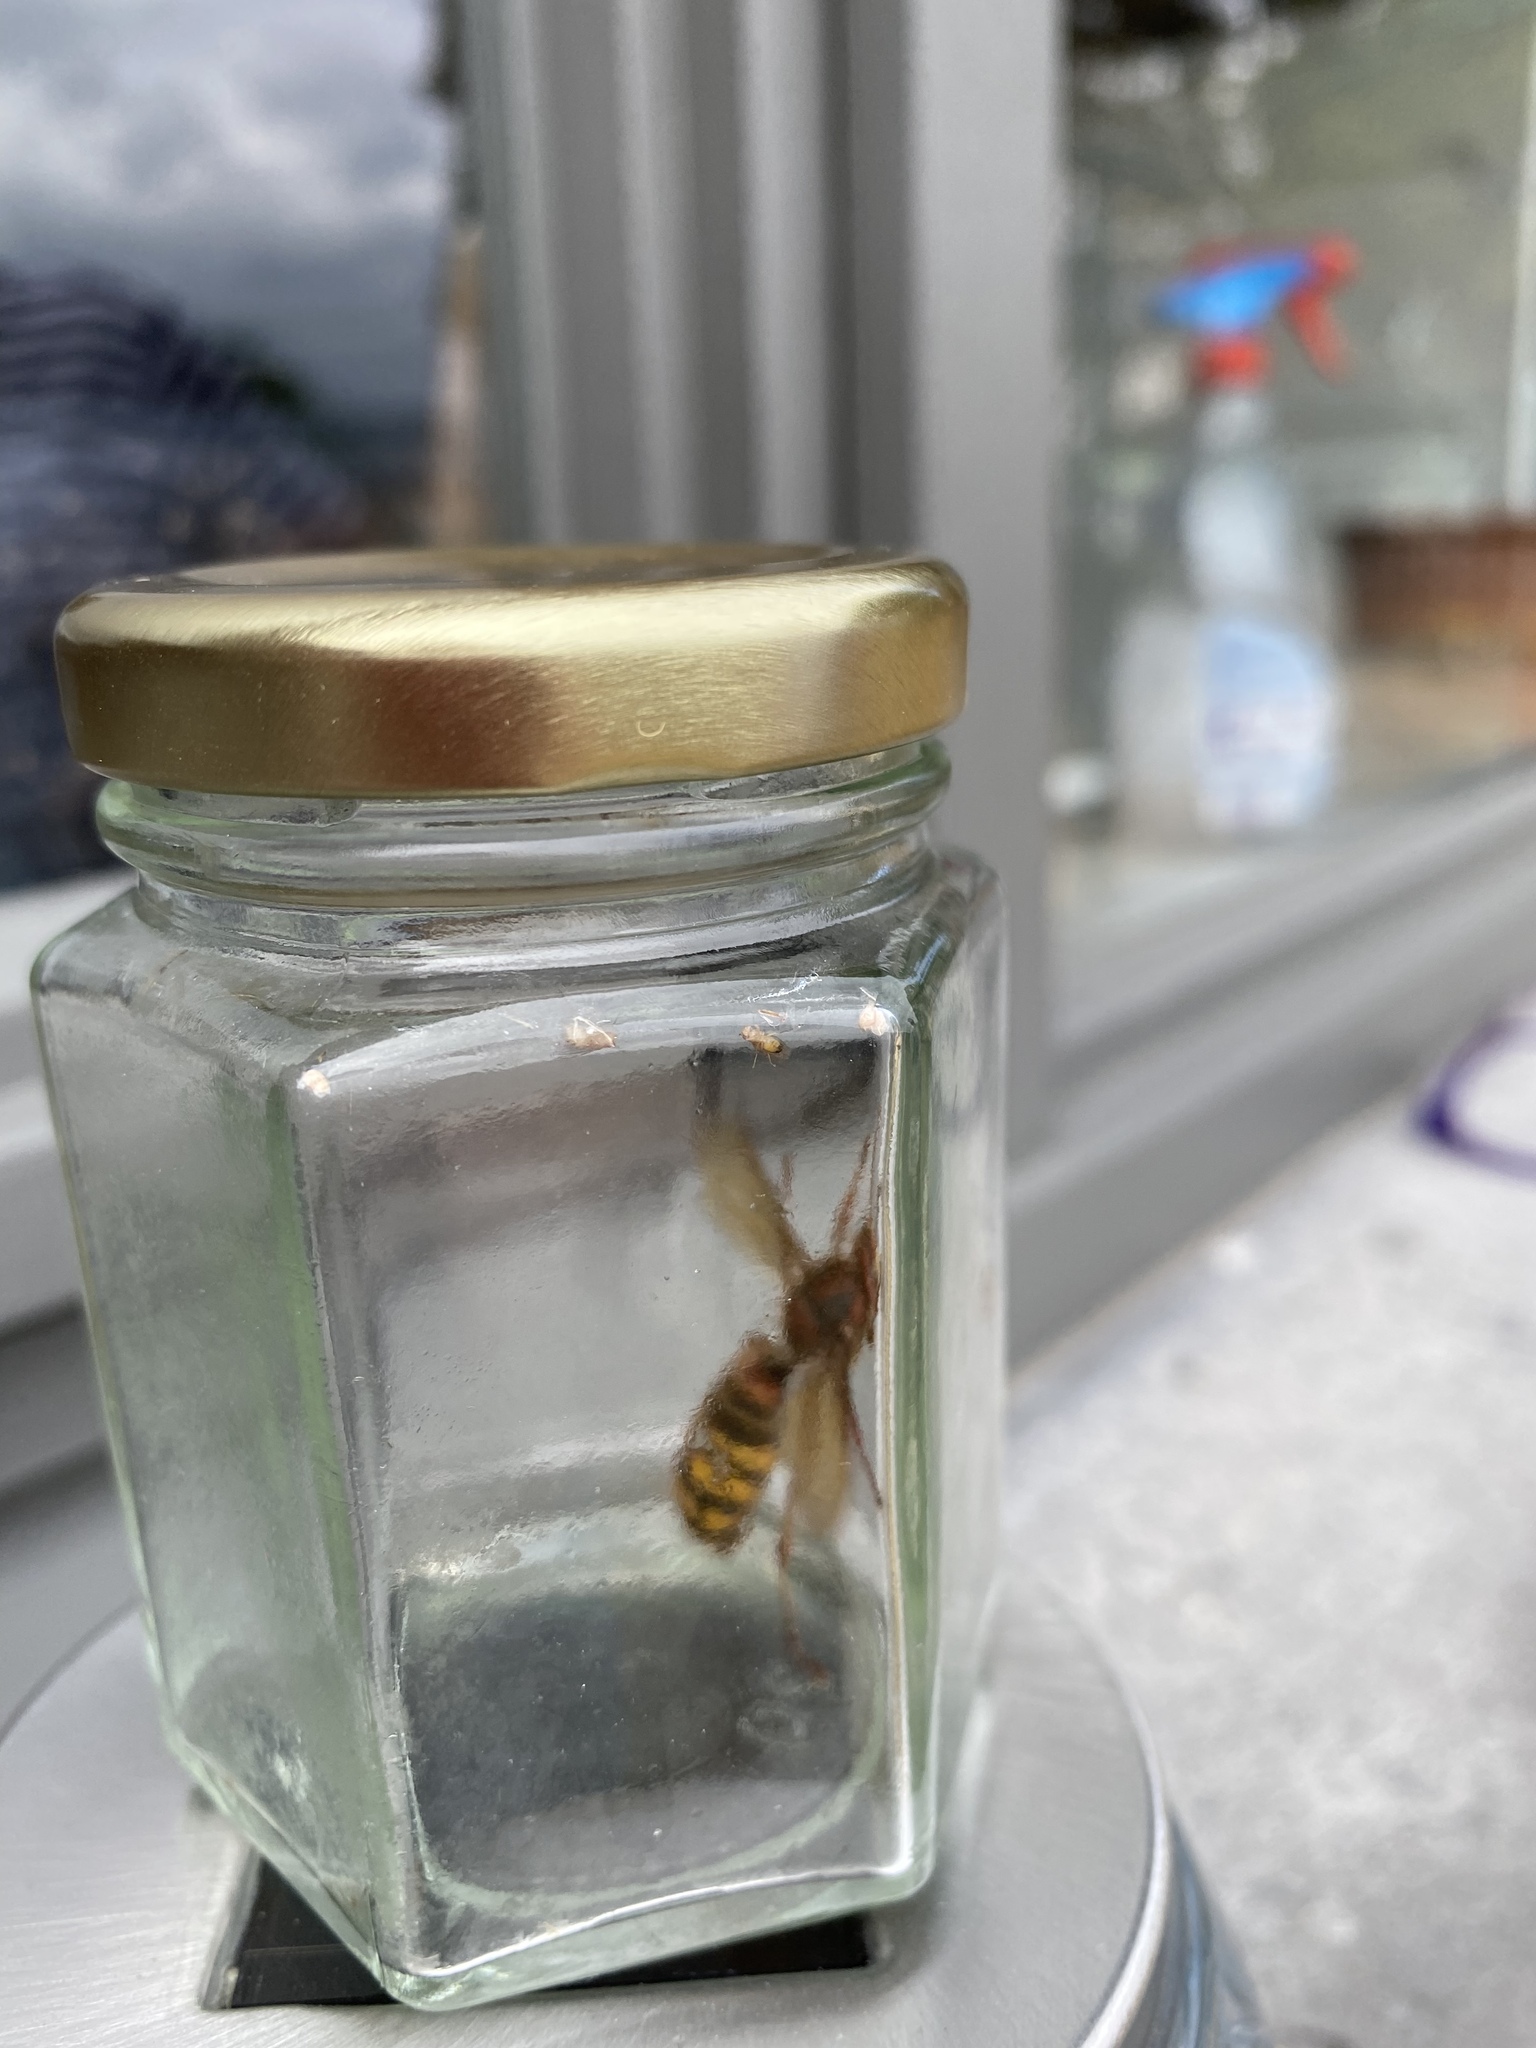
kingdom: Animalia
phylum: Arthropoda
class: Insecta
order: Hymenoptera
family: Vespidae
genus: Vespa
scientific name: Vespa crabro
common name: Hornet
